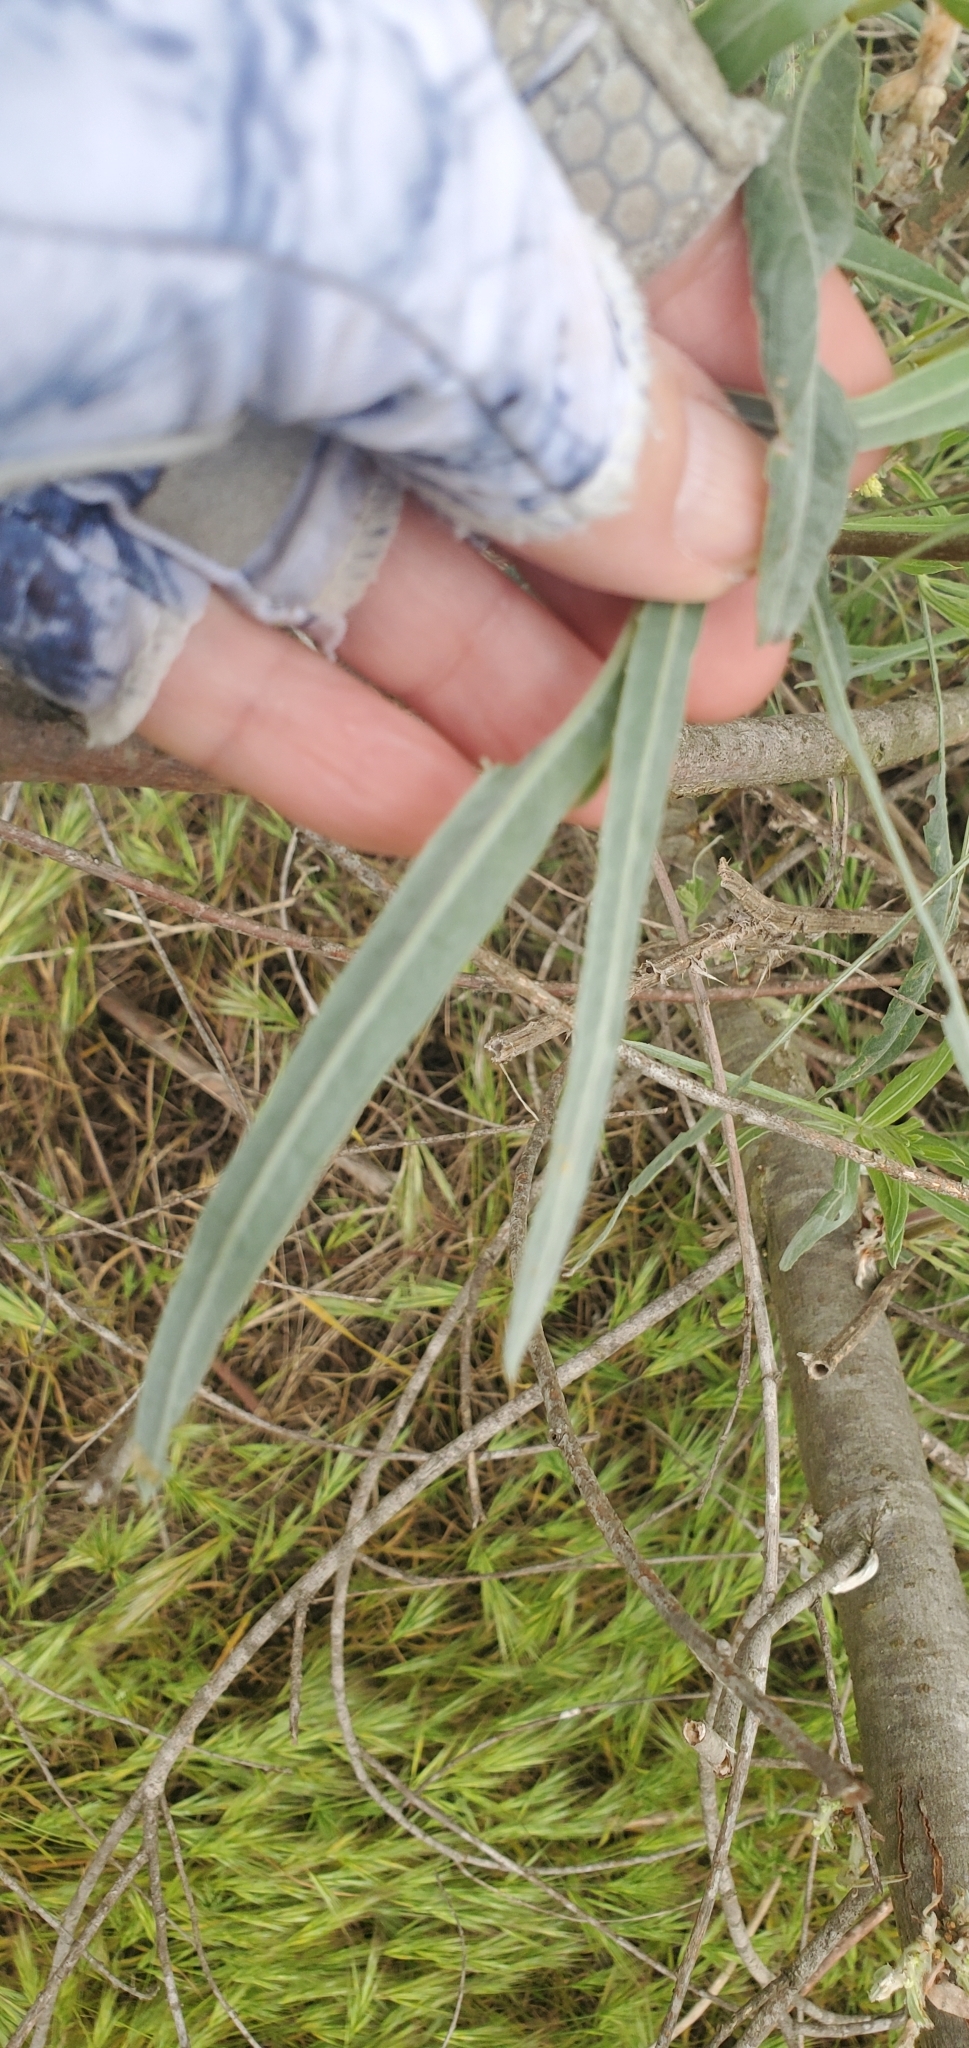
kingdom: Plantae
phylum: Tracheophyta
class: Magnoliopsida
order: Malpighiales
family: Salicaceae
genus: Salix
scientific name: Salix exigua
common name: Coyote willow
